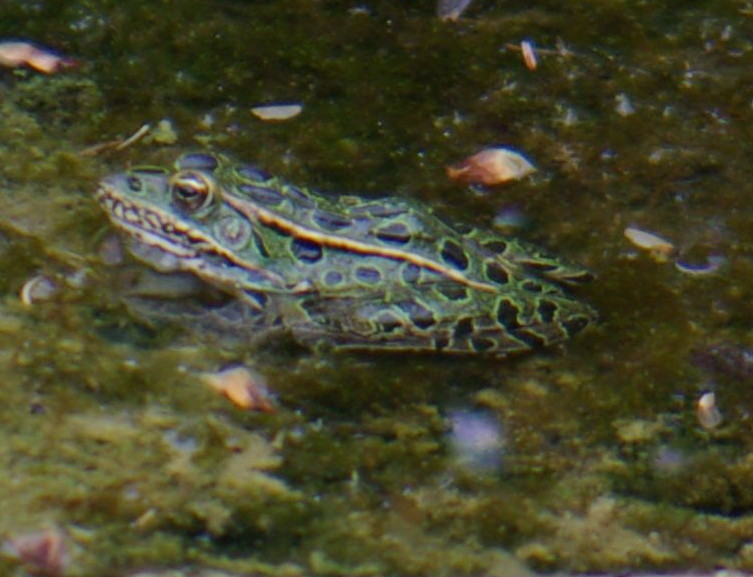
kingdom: Animalia
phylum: Chordata
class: Amphibia
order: Anura
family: Ranidae
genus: Lithobates
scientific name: Lithobates pipiens
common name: Northern leopard frog
